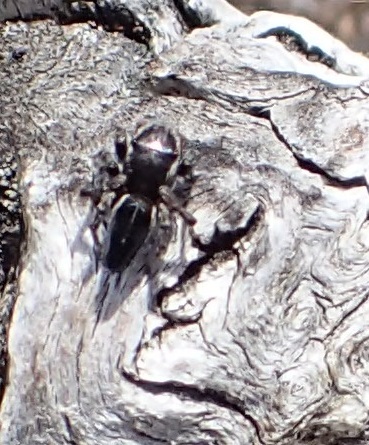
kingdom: Animalia
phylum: Arthropoda
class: Arachnida
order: Araneae
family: Salticidae
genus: Maratus
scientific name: Maratus proszynskii
